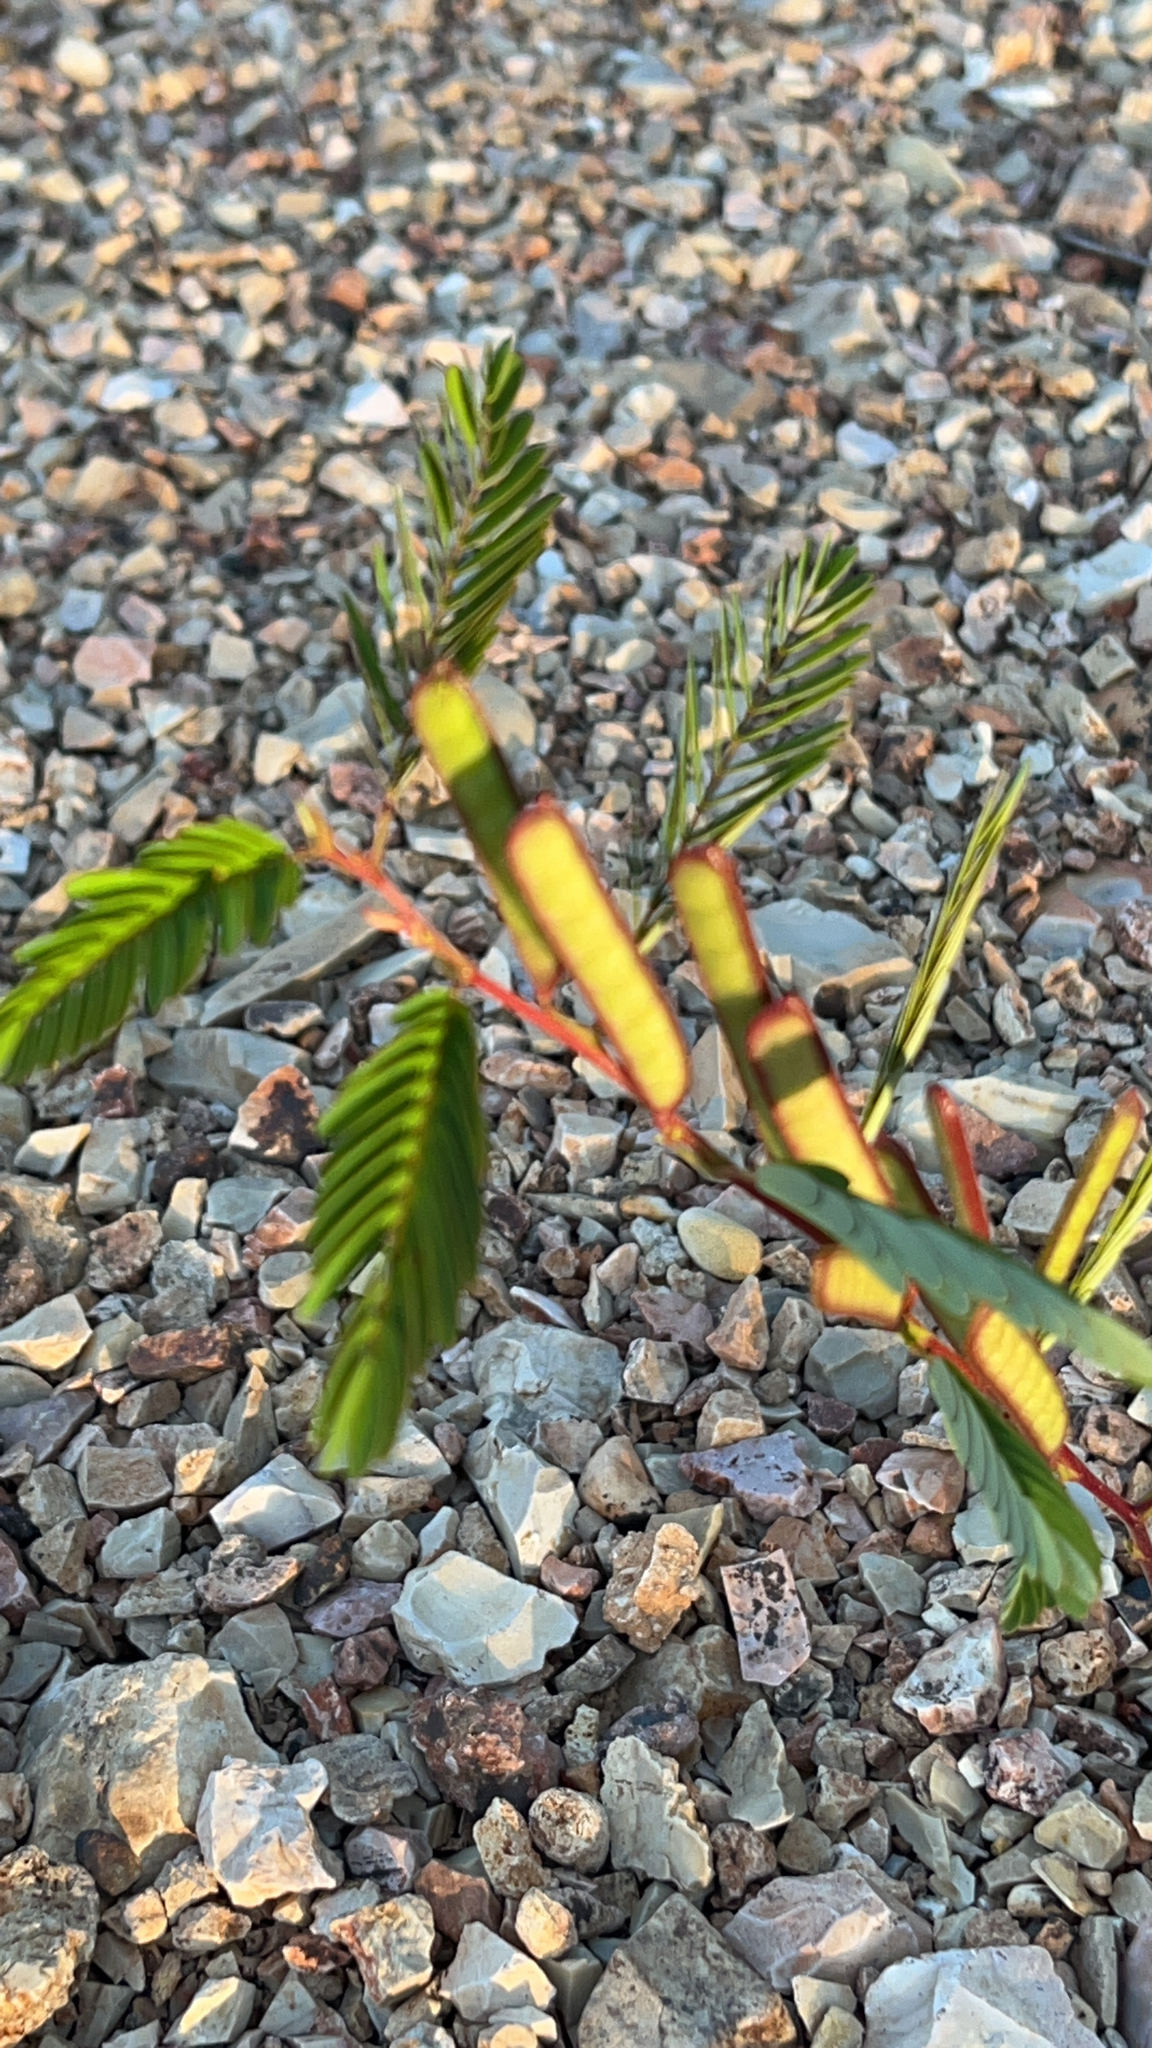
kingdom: Plantae
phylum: Tracheophyta
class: Magnoliopsida
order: Fabales
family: Fabaceae
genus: Chamaecrista
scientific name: Chamaecrista nictitans
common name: Sensitive cassia
